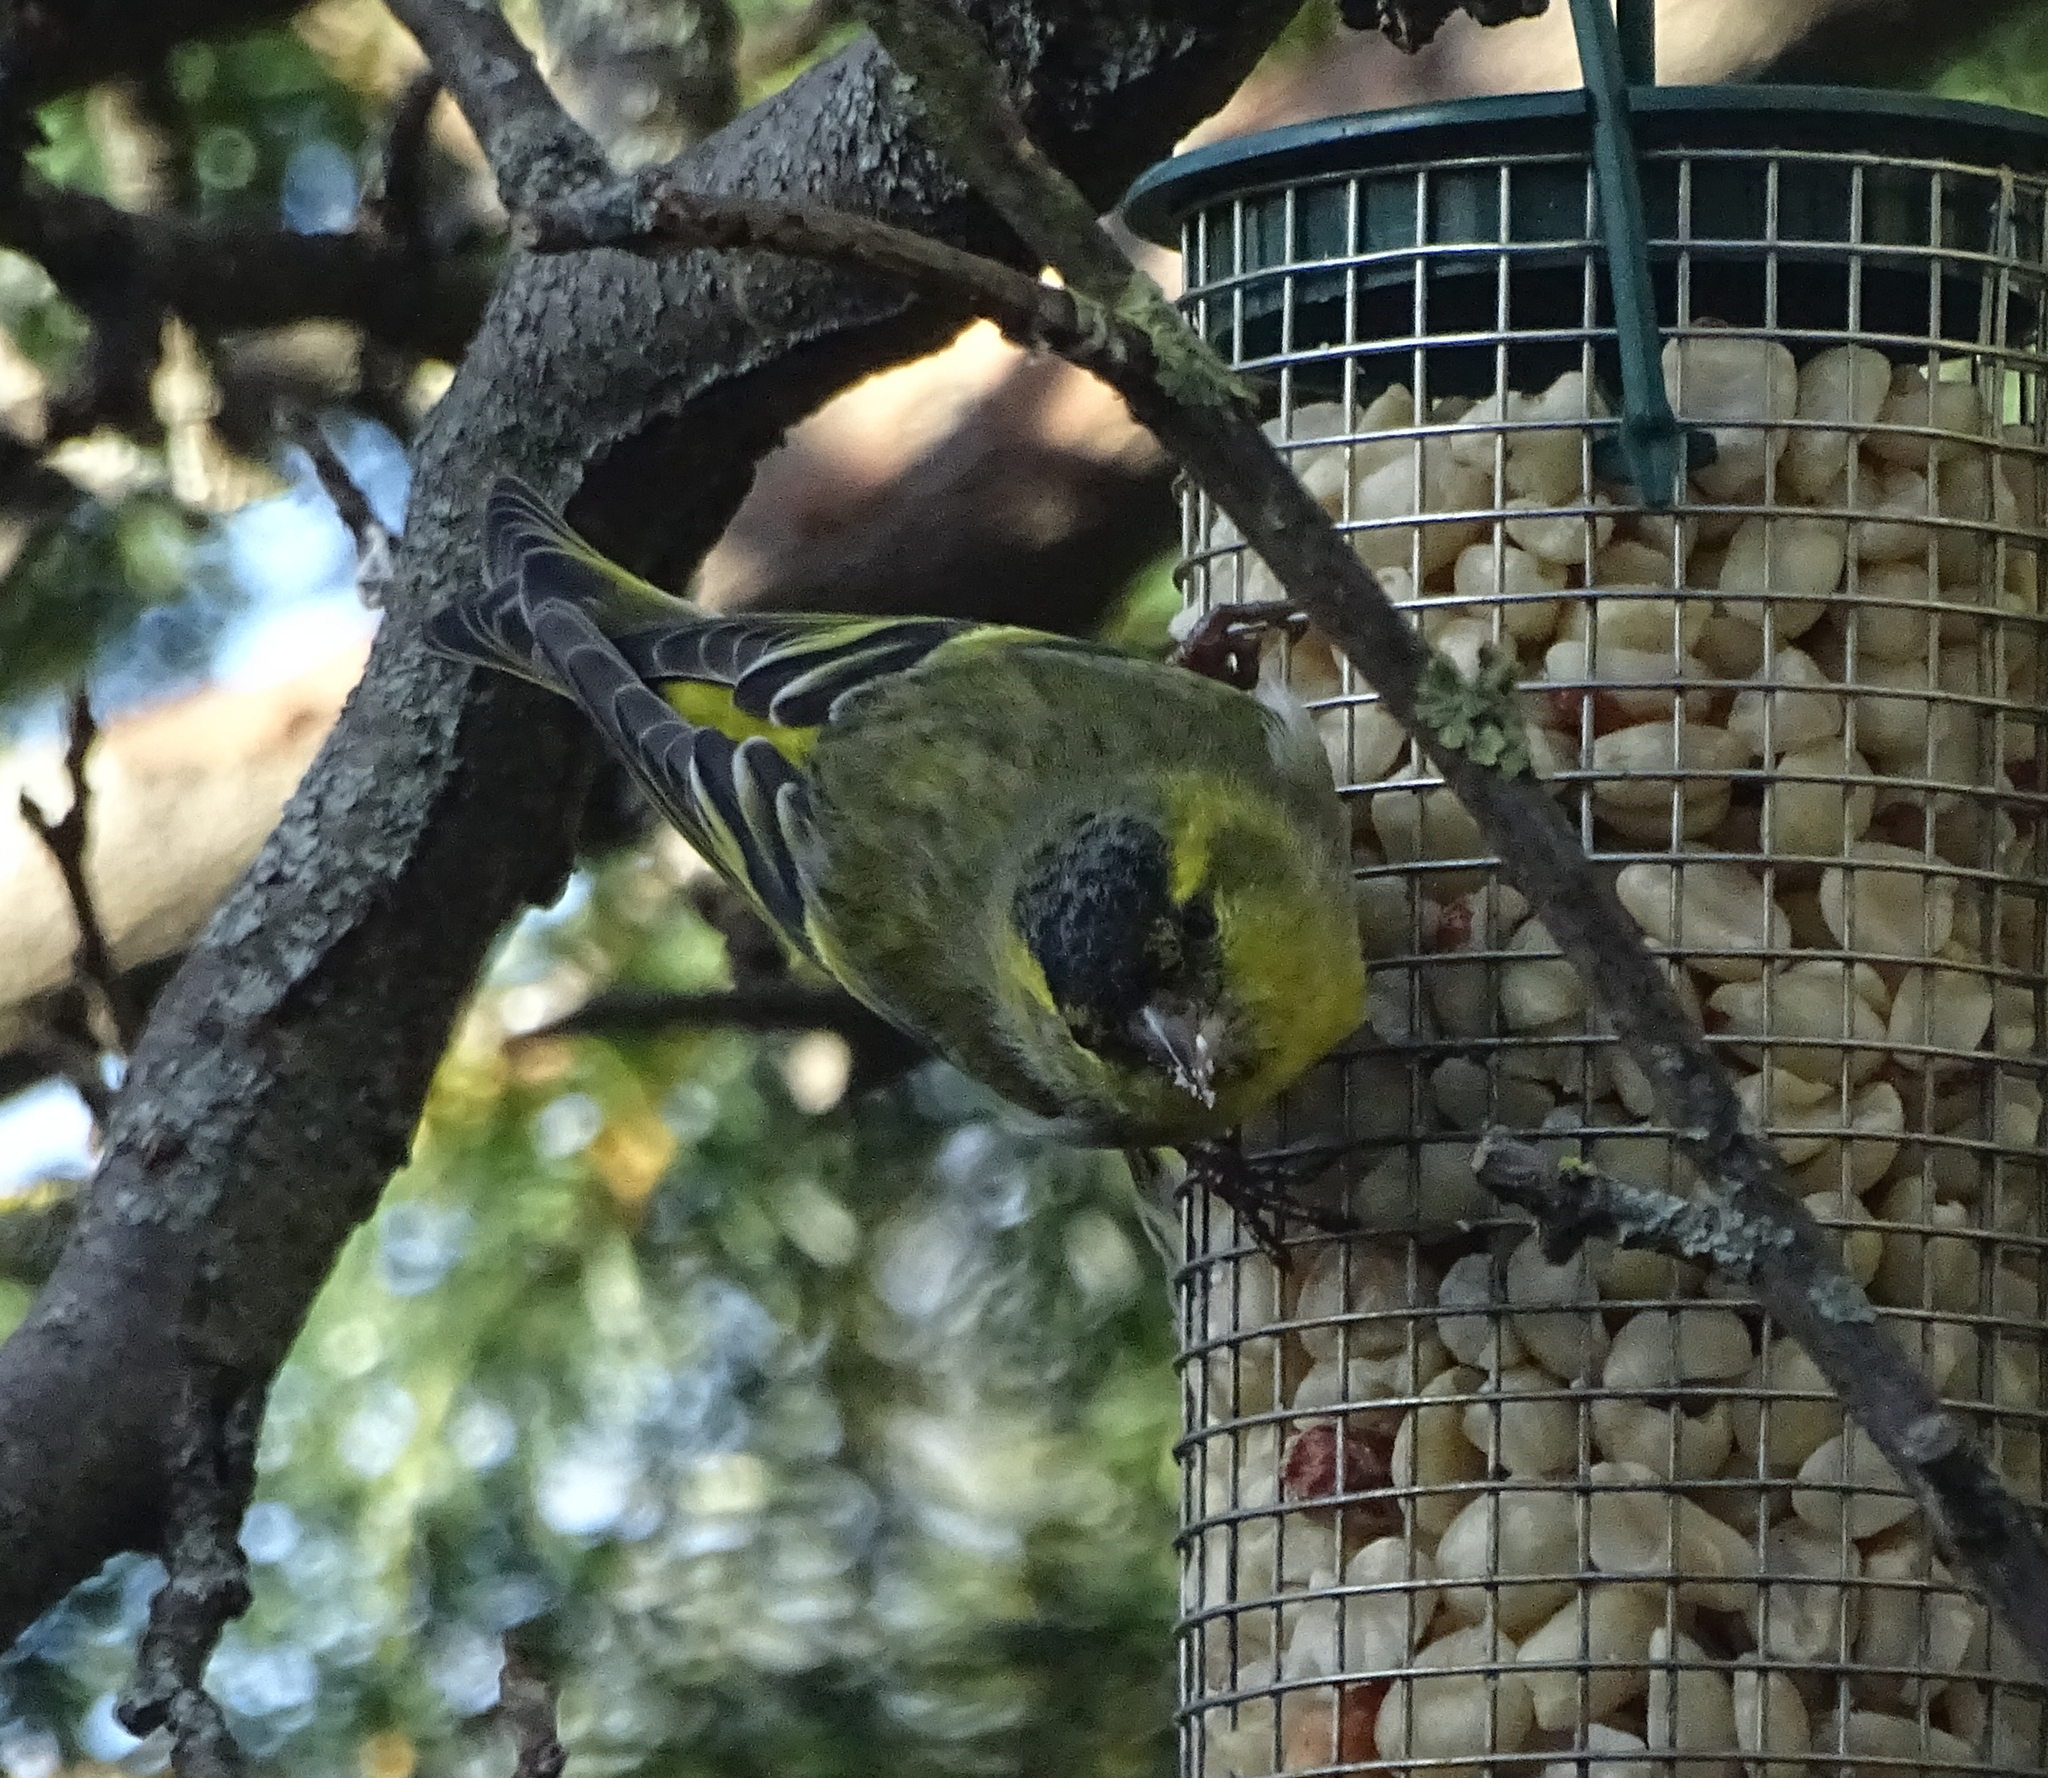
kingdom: Animalia
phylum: Chordata
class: Aves
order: Passeriformes
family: Fringillidae
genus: Spinus
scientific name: Spinus spinus
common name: Eurasian siskin
